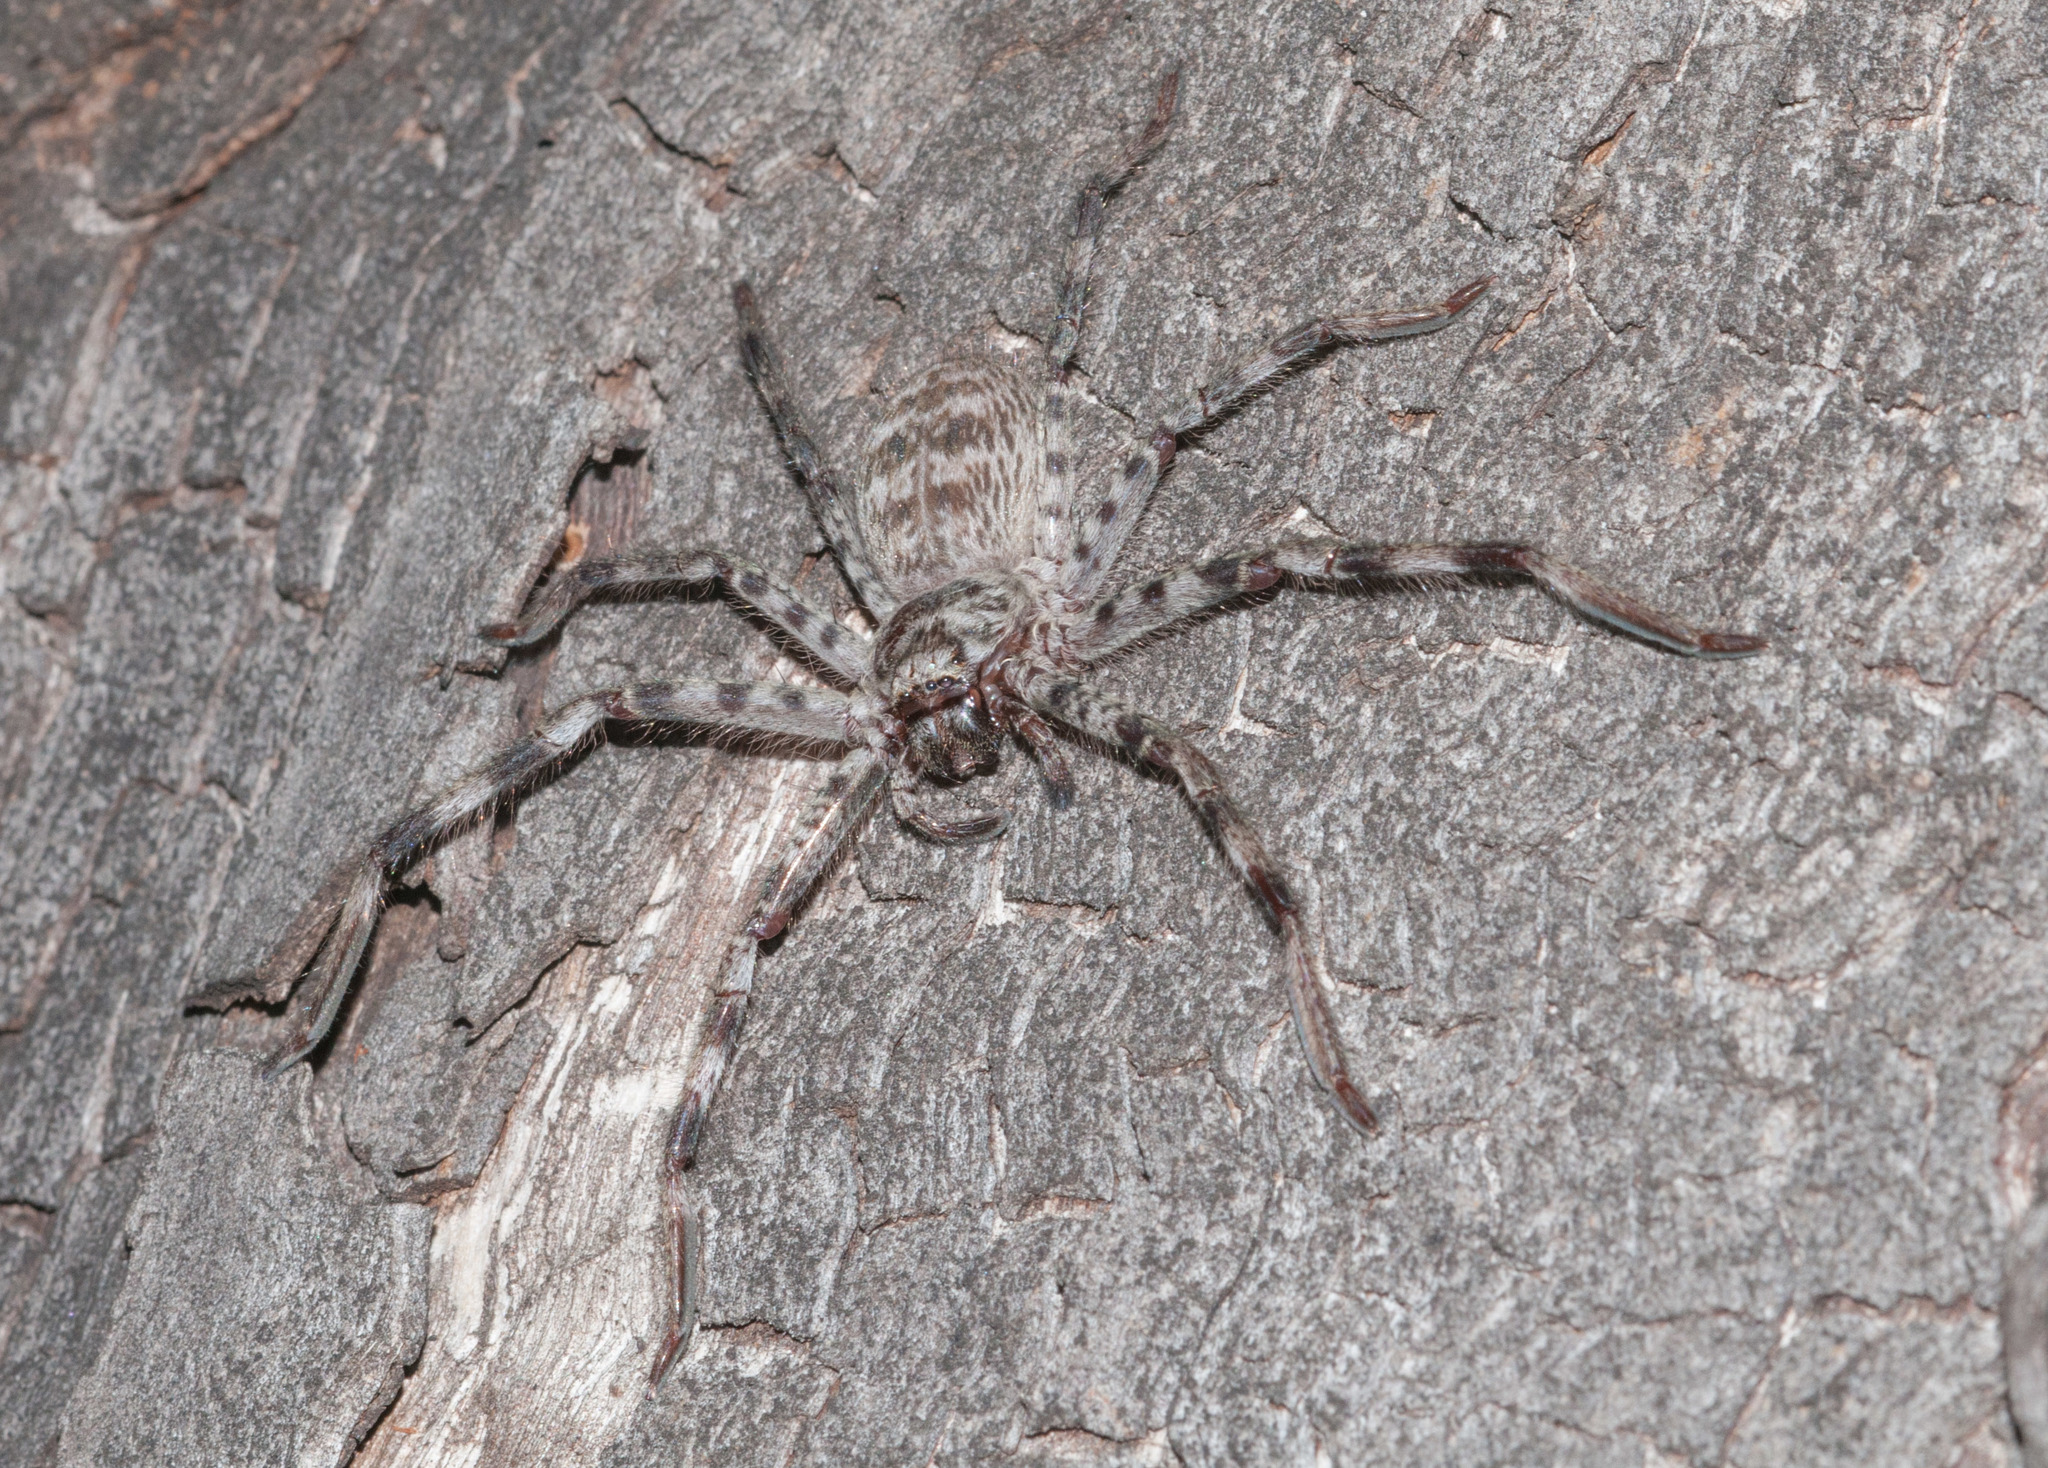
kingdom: Animalia
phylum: Arthropoda
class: Arachnida
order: Araneae
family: Sparassidae
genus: Holconia
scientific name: Holconia flindersi
